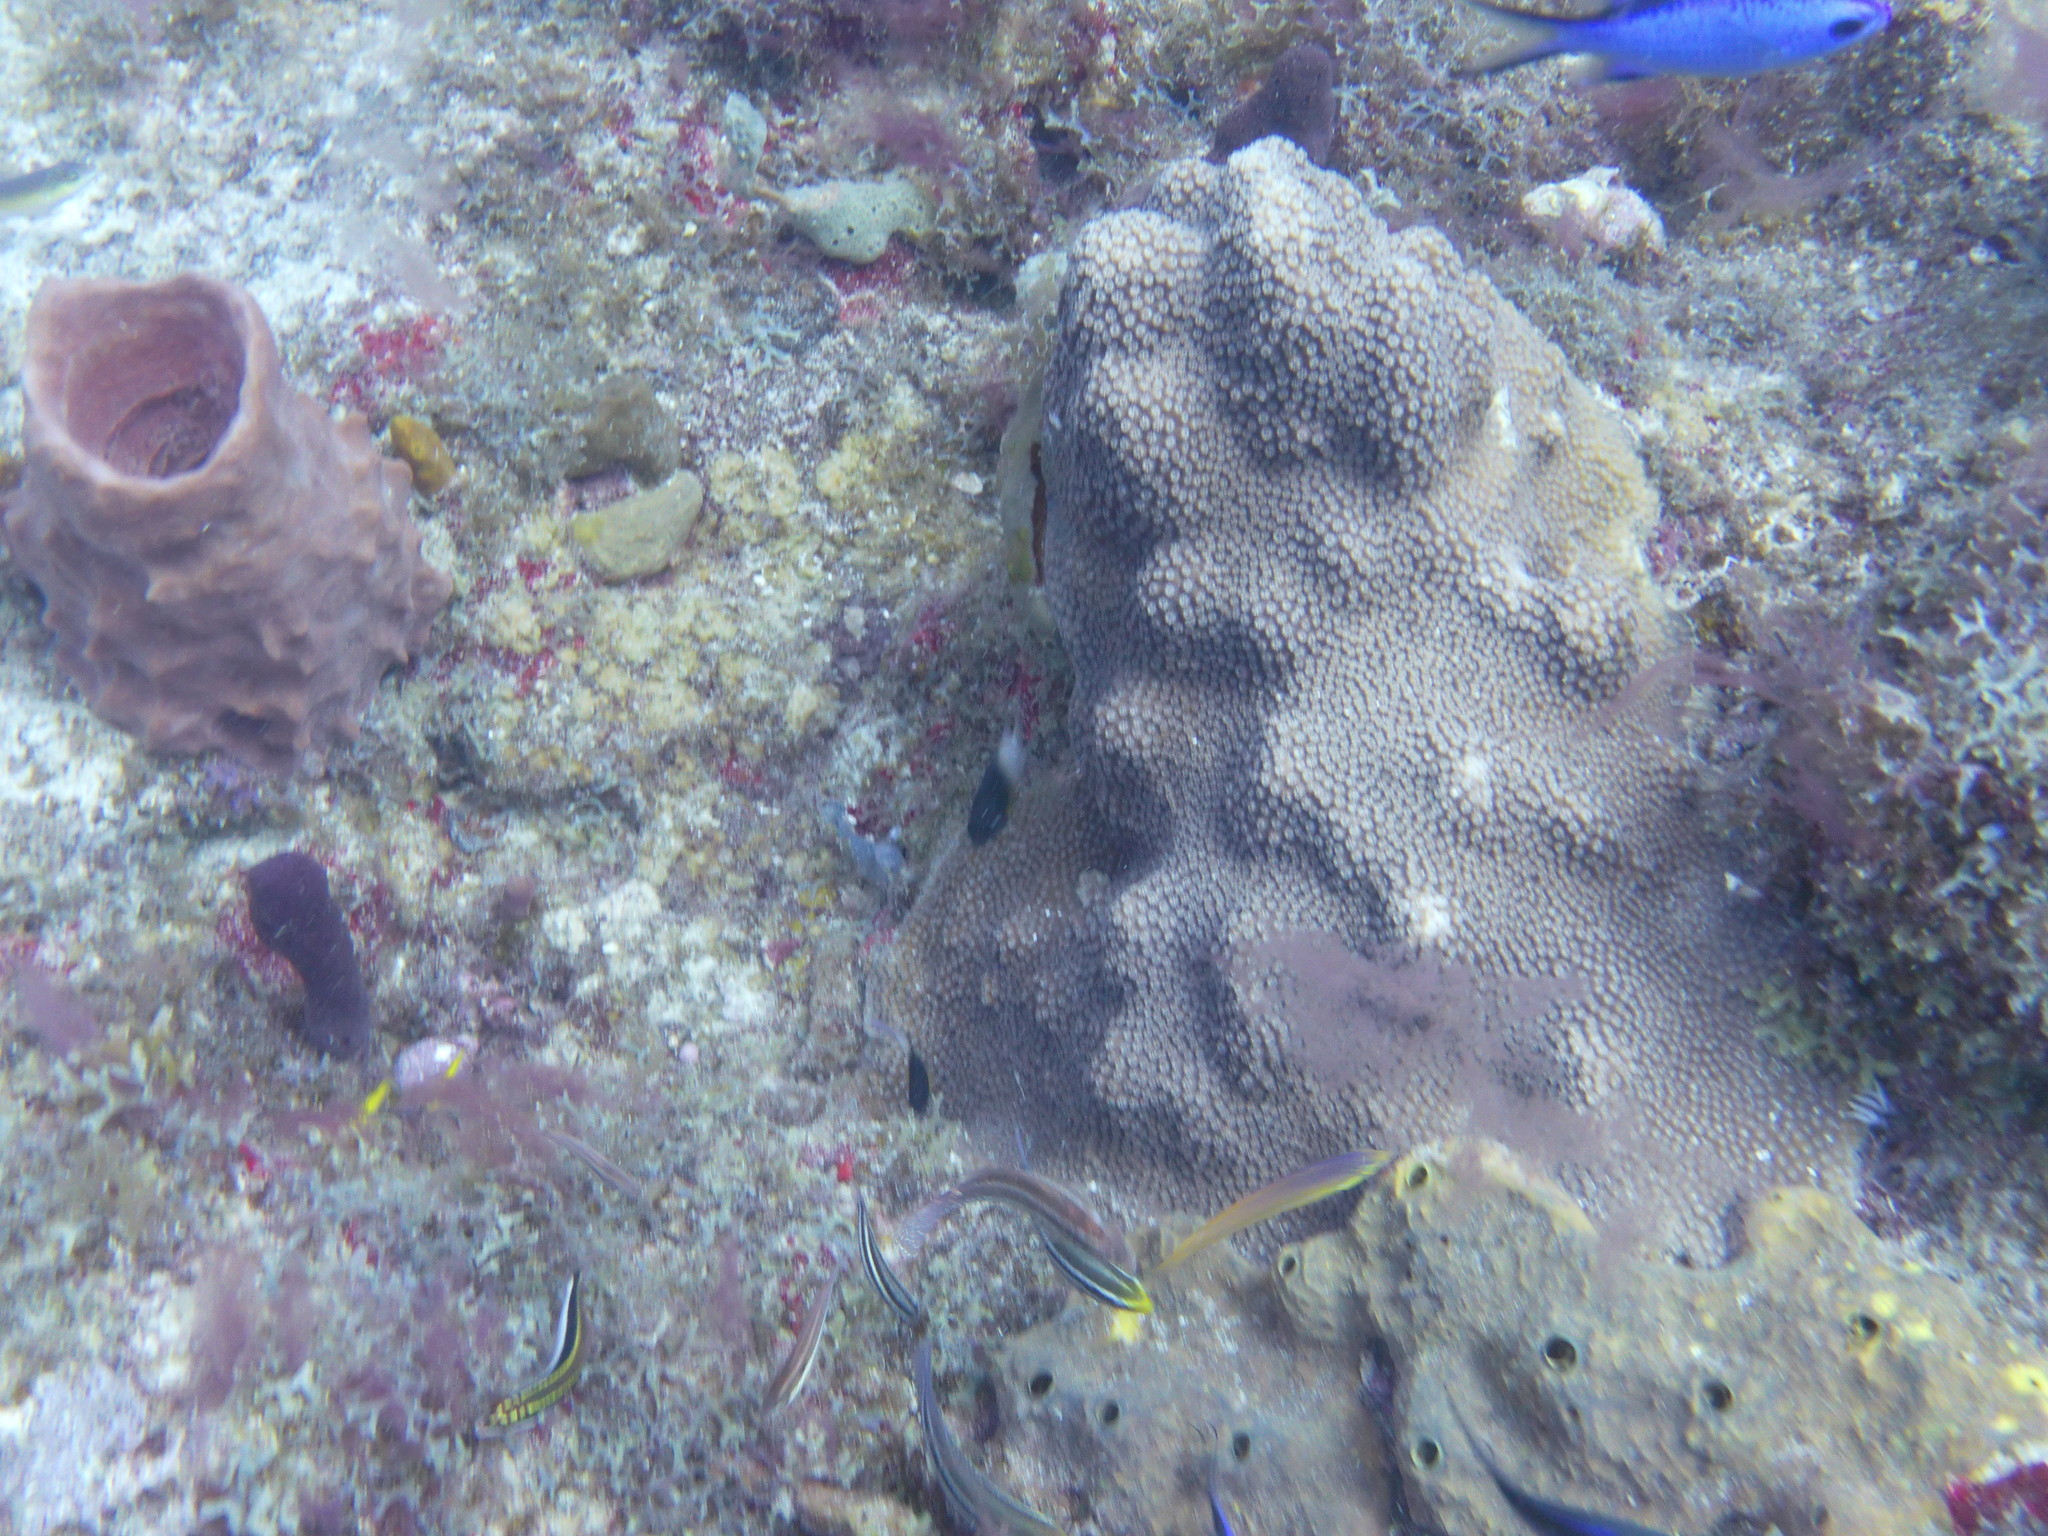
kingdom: Animalia
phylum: Chordata
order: Perciformes
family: Pomacentridae
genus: Stegastes
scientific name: Stegastes partitus
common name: Bicolor damselfish
